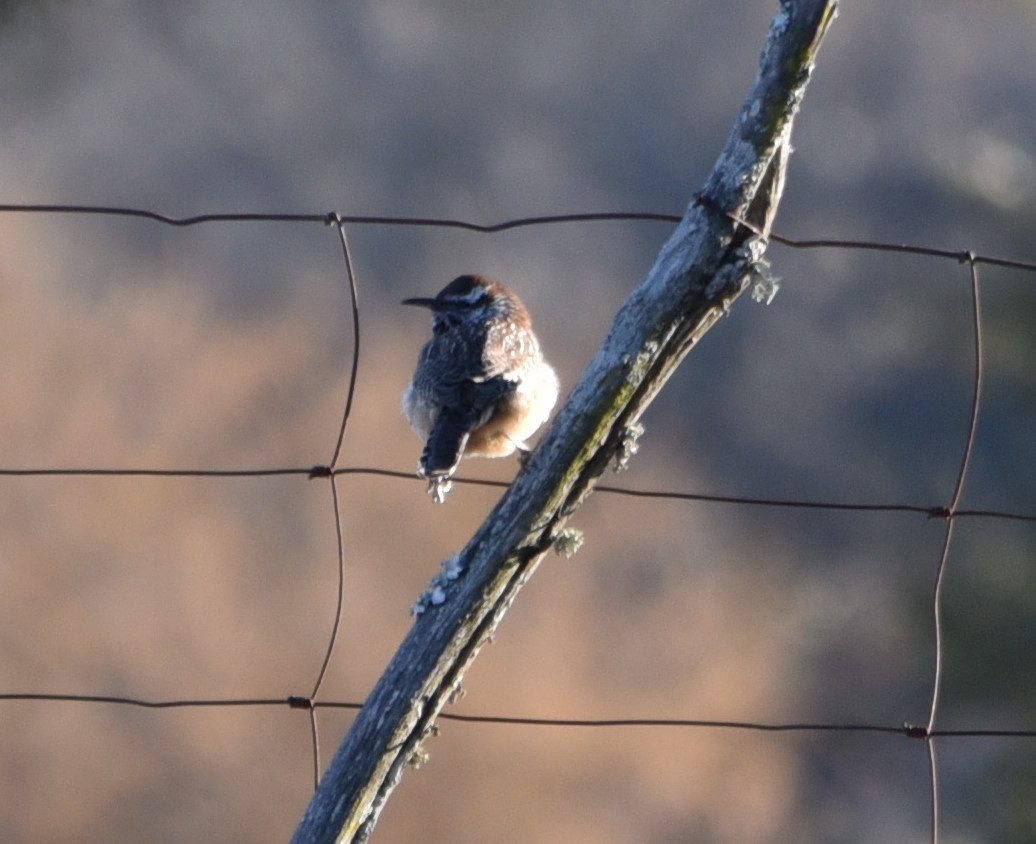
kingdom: Animalia
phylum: Chordata
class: Aves
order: Passeriformes
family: Troglodytidae
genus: Campylorhynchus
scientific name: Campylorhynchus brunneicapillus
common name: Cactus wren
